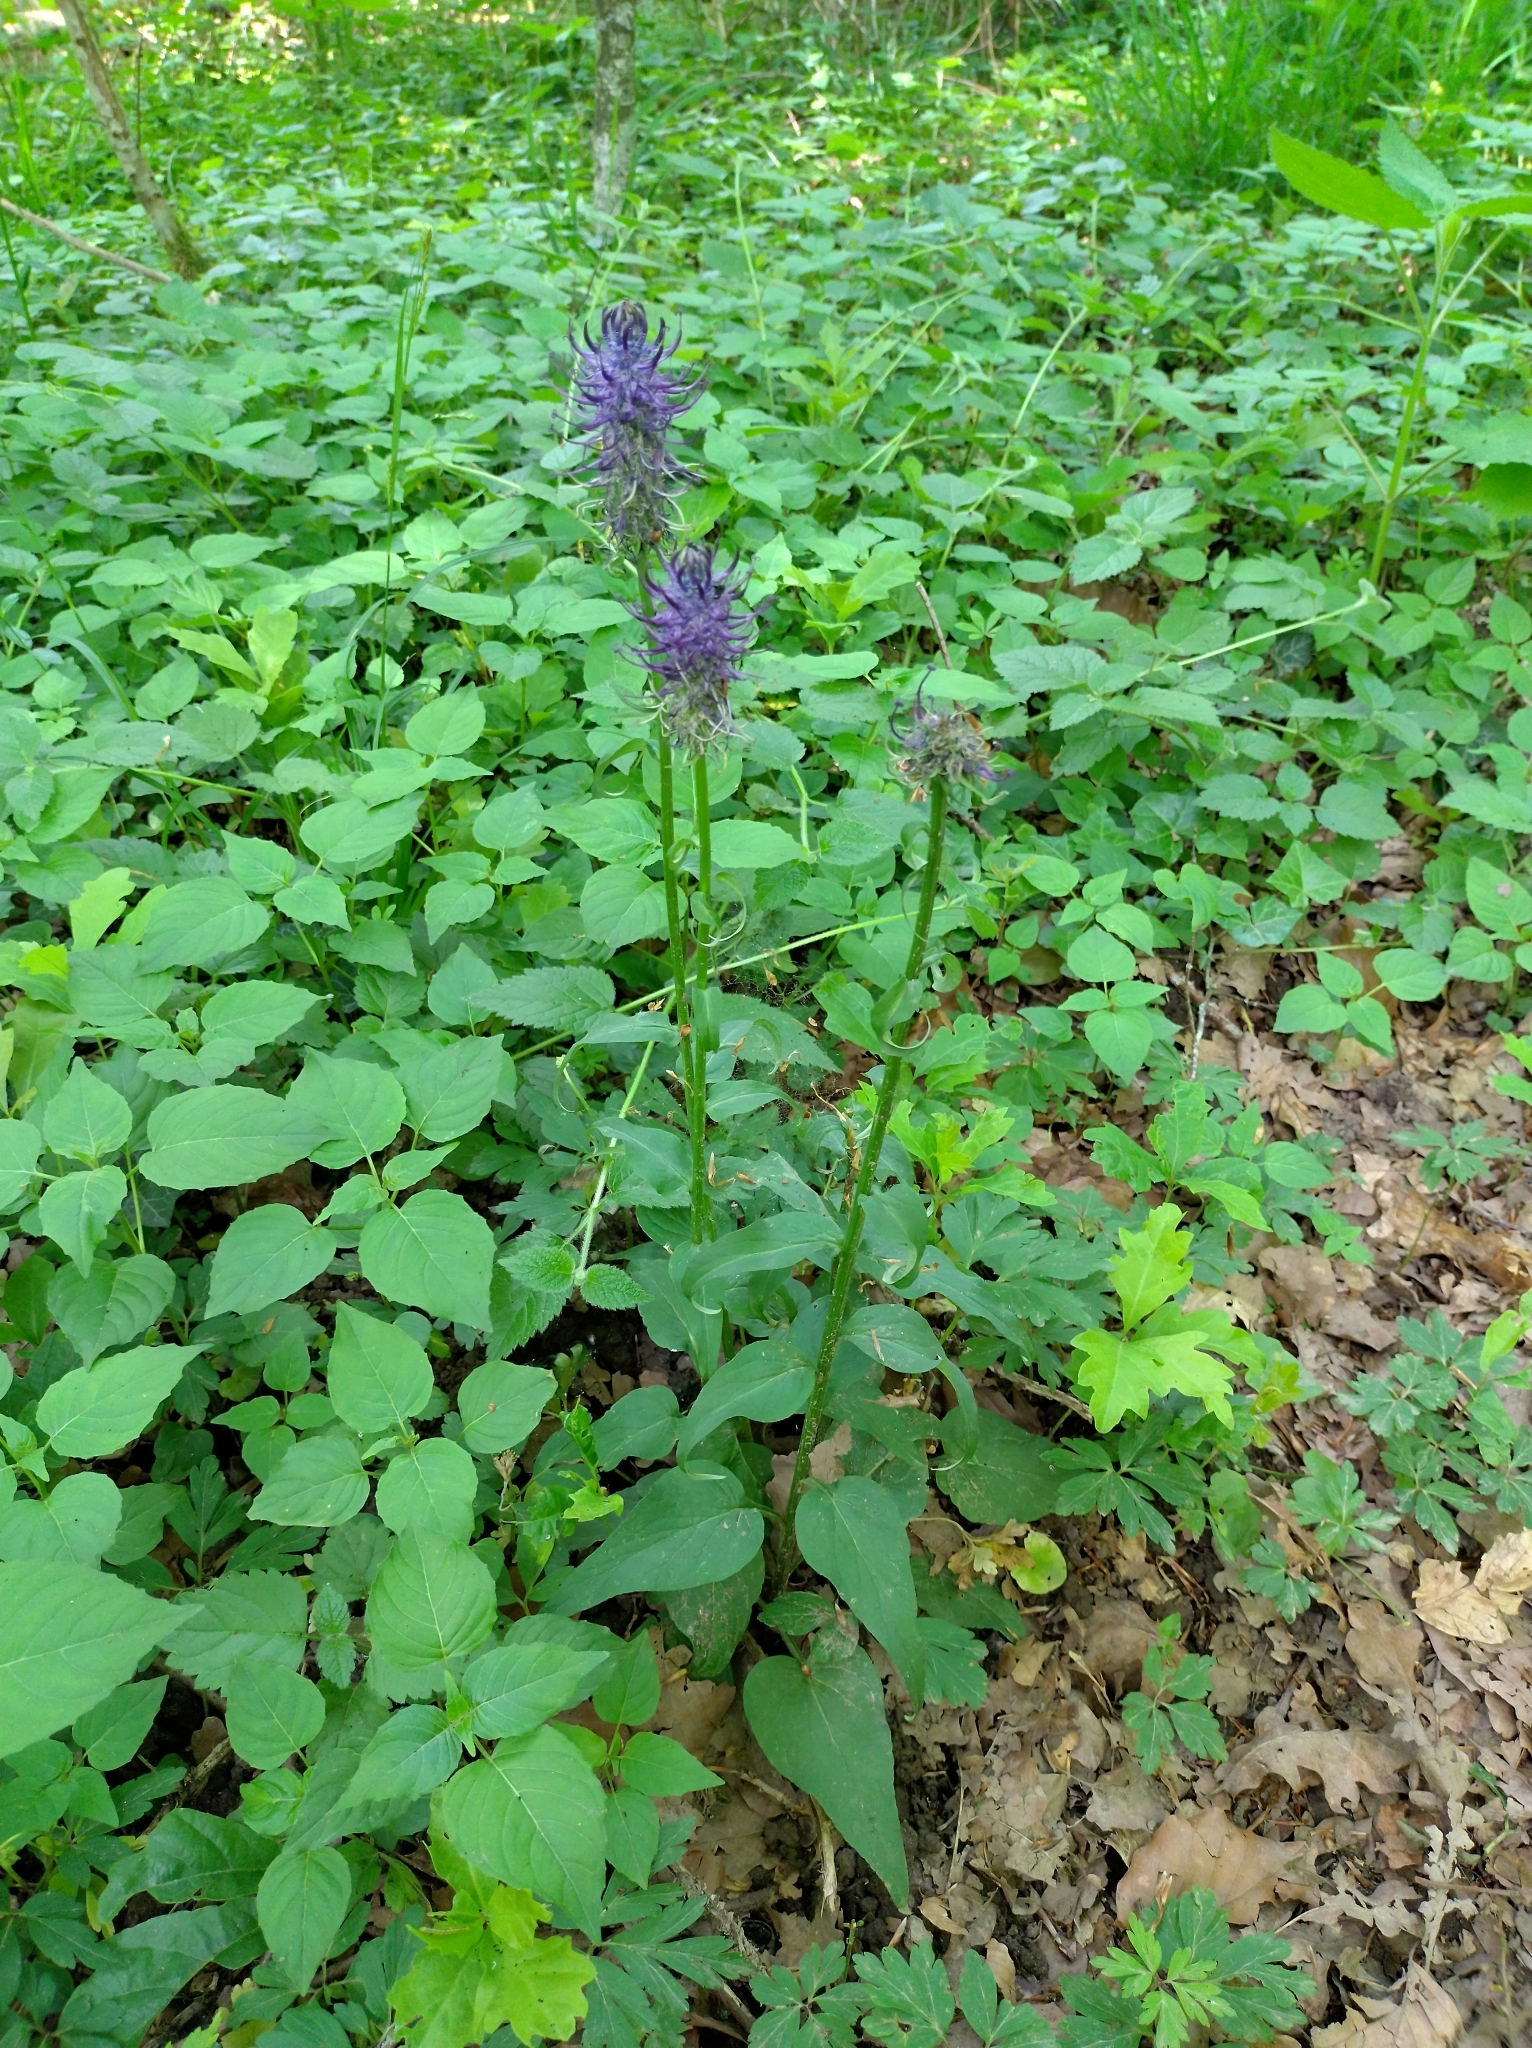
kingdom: Plantae
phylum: Tracheophyta
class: Magnoliopsida
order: Asterales
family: Campanulaceae
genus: Phyteuma
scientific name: Phyteuma nigrum
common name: Black rampion
